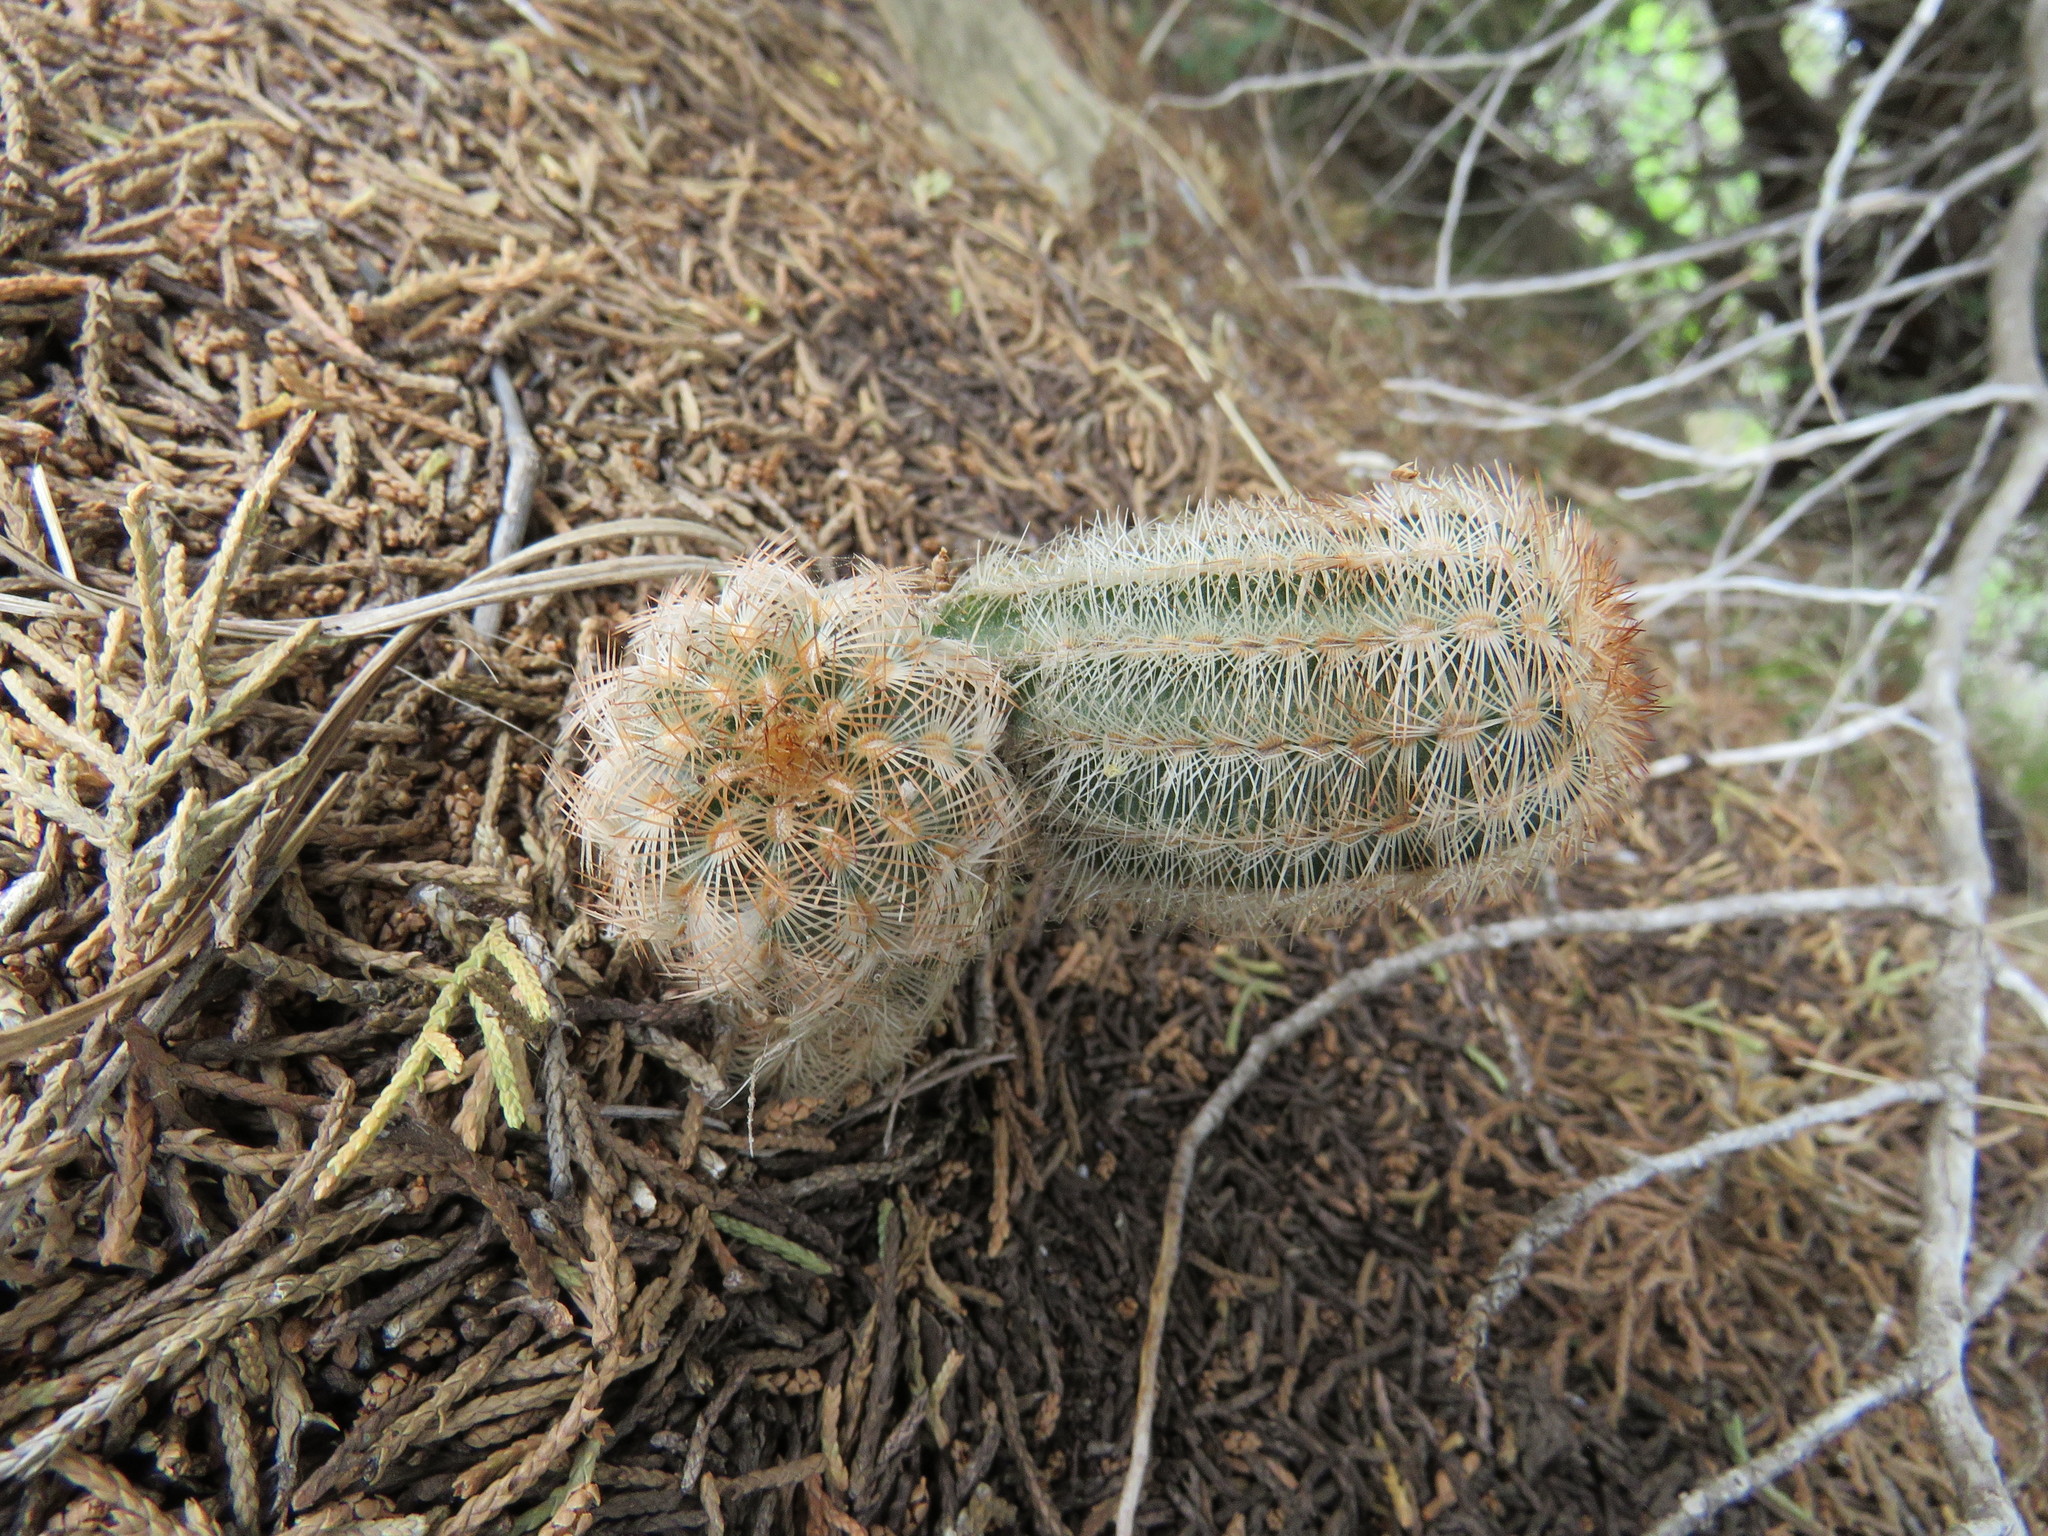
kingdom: Plantae
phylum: Tracheophyta
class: Magnoliopsida
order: Caryophyllales
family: Cactaceae
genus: Echinocereus
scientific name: Echinocereus reichenbachii
